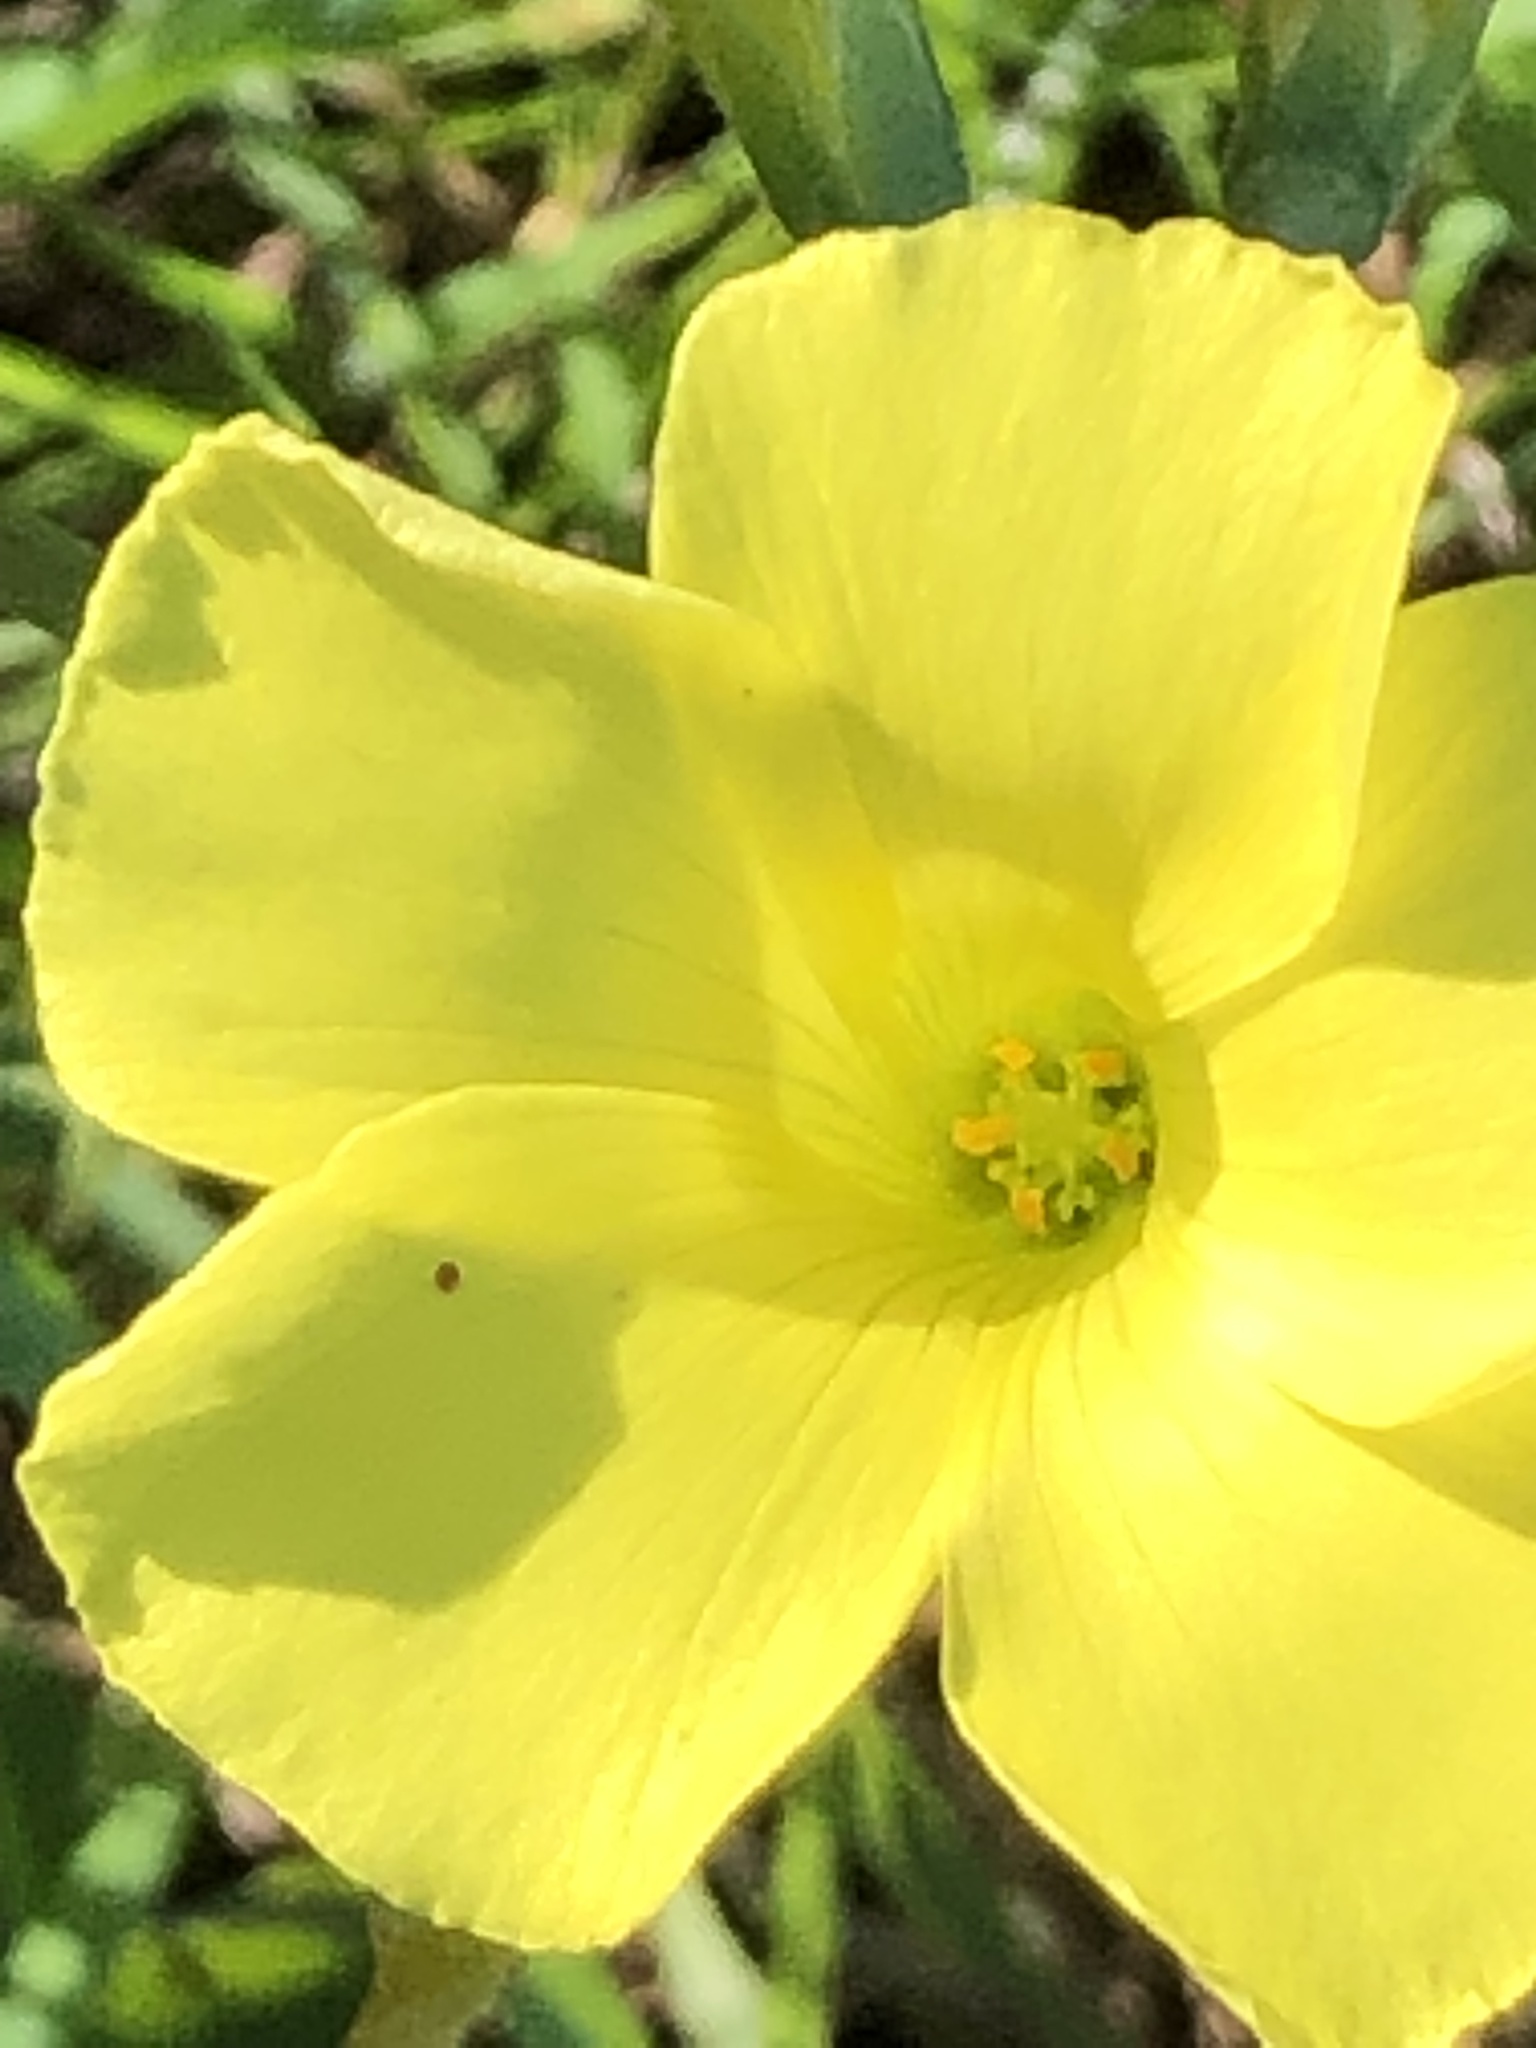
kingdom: Plantae
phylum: Tracheophyta
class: Magnoliopsida
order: Oxalidales
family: Oxalidaceae
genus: Oxalis
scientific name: Oxalis pes-caprae
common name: Bermuda-buttercup
